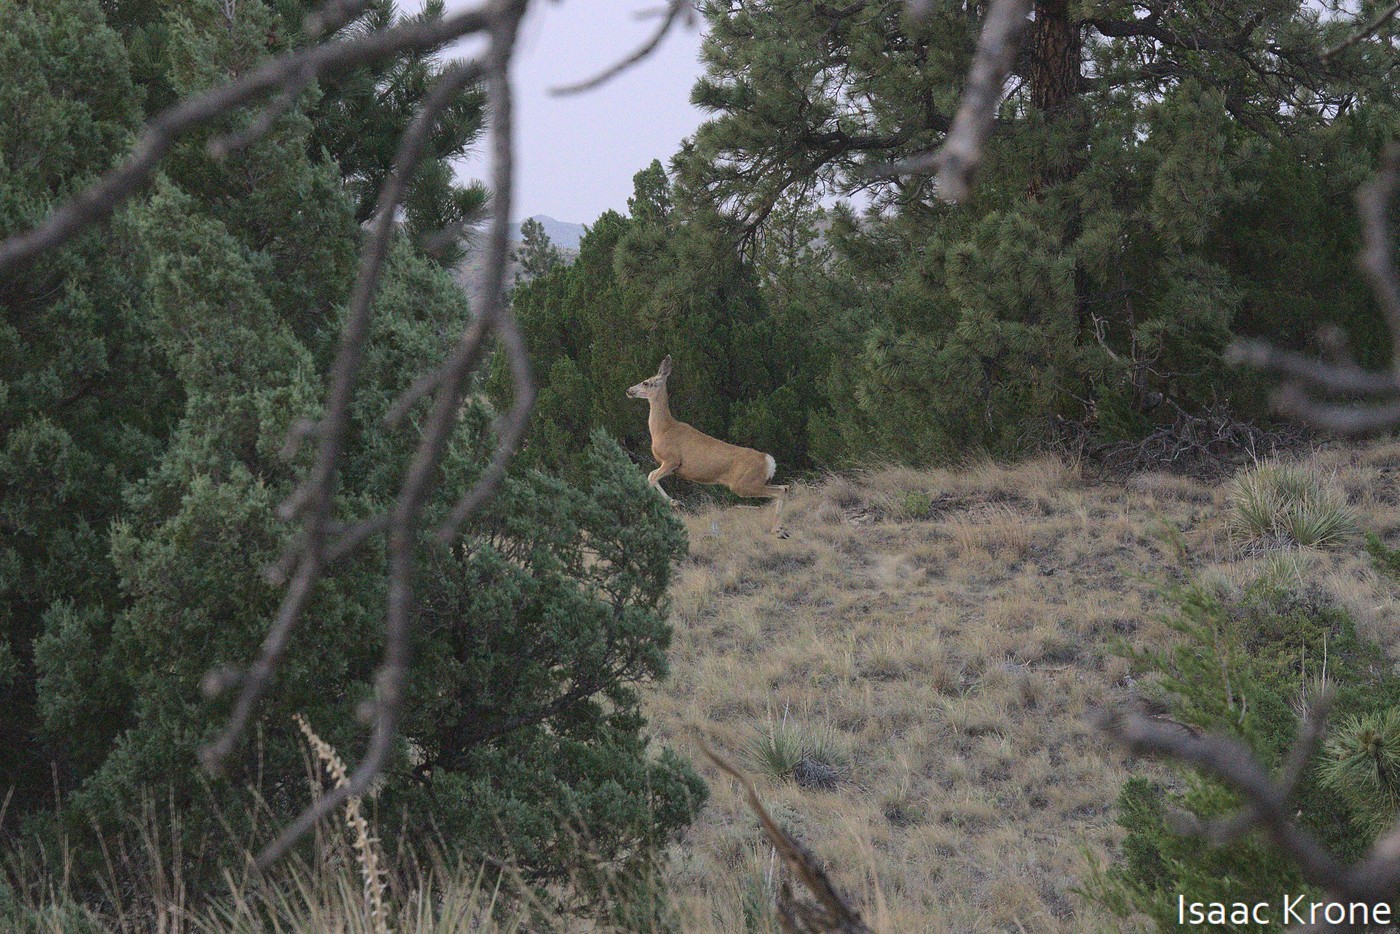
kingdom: Animalia
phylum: Chordata
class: Mammalia
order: Artiodactyla
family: Cervidae
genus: Odocoileus
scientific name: Odocoileus hemionus
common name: Mule deer
